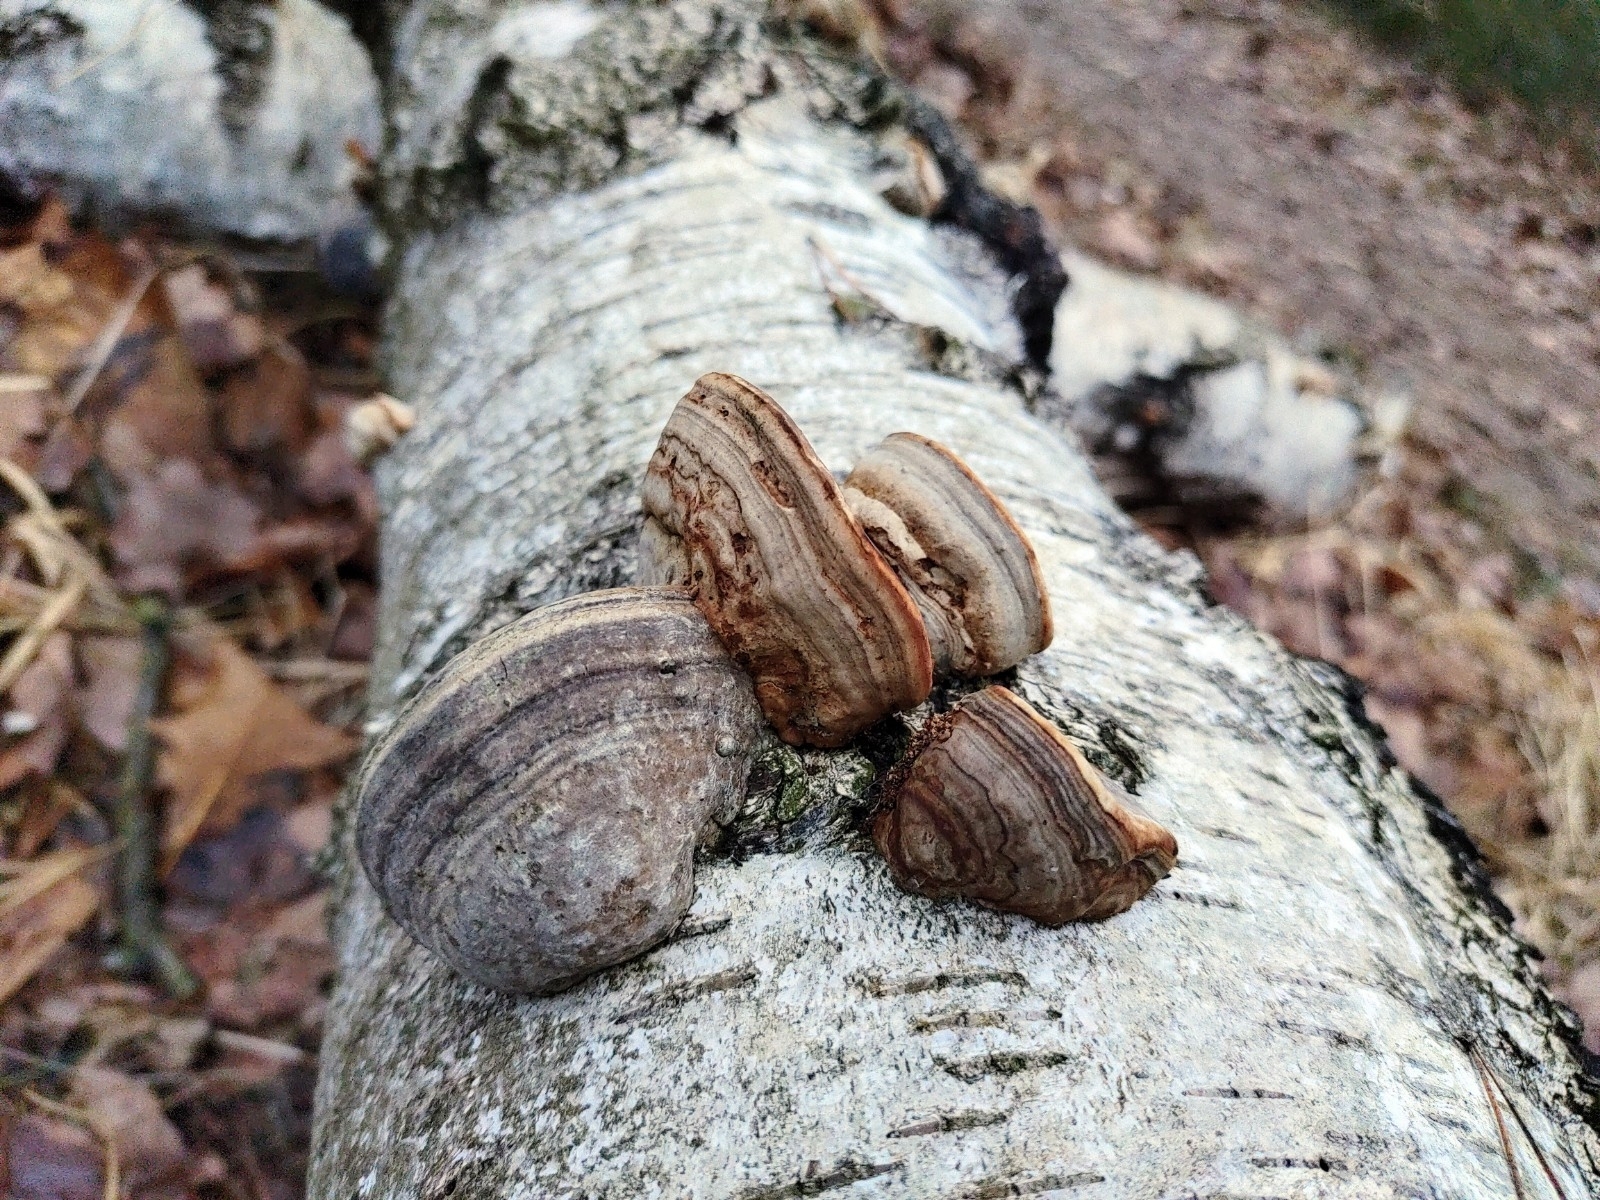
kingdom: Fungi
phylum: Basidiomycota
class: Agaricomycetes
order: Polyporales
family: Polyporaceae
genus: Fomes
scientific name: Fomes fomentarius
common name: Hoof fungus
